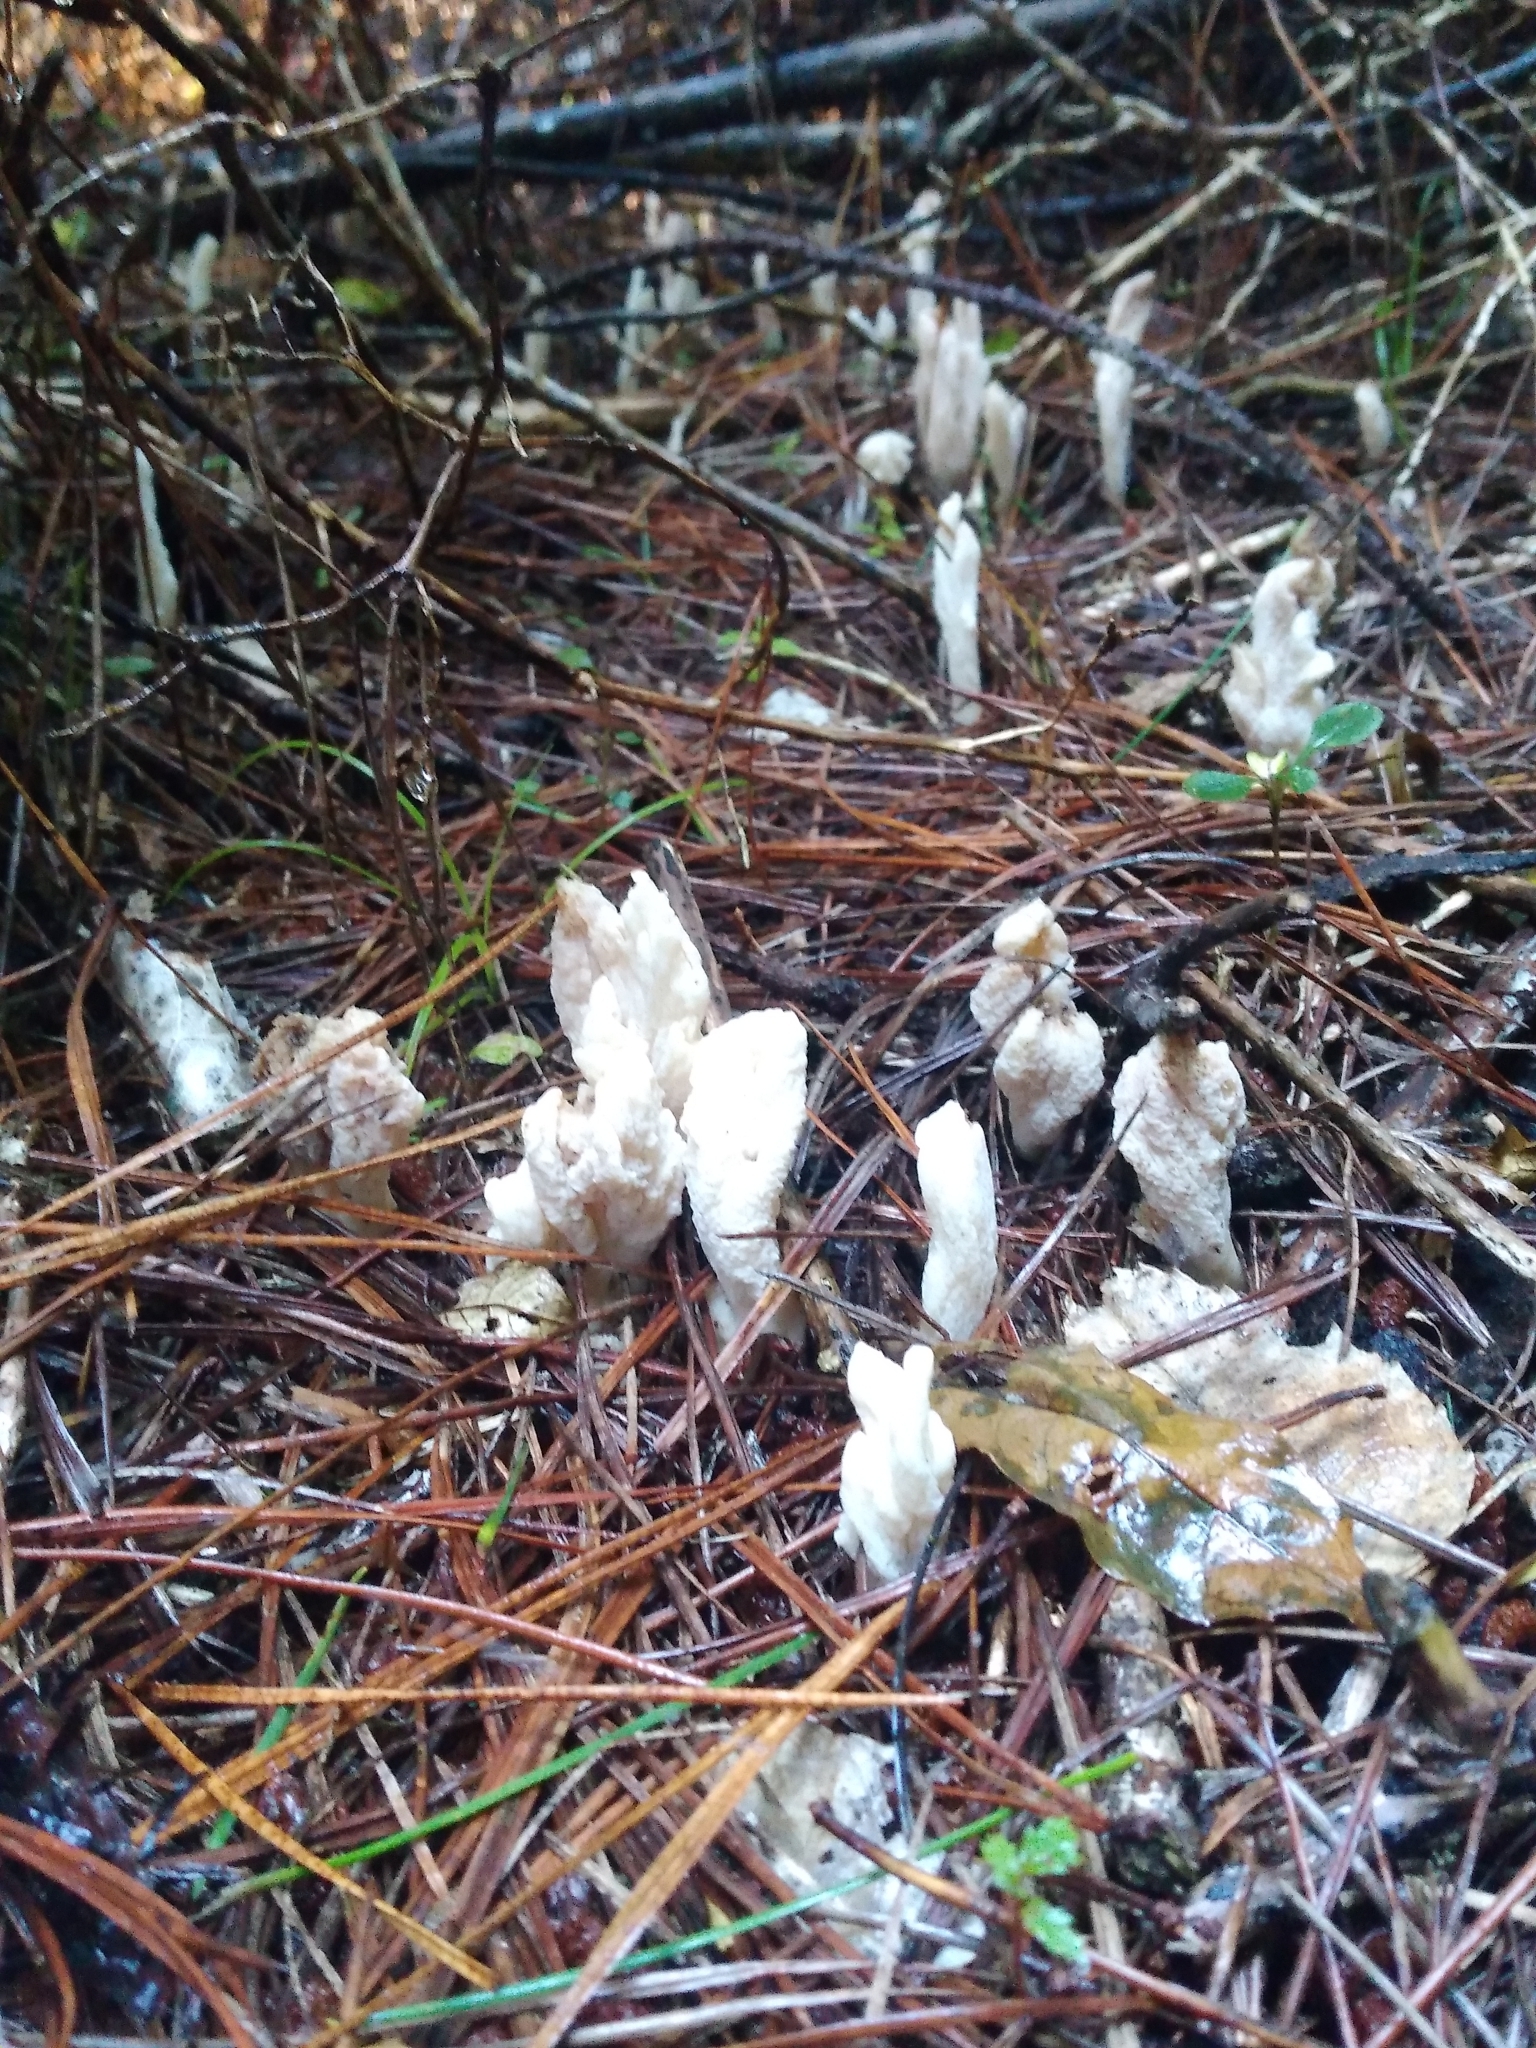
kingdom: Fungi
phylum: Basidiomycota
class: Agaricomycetes
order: Cantharellales
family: Hydnaceae
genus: Clavulina
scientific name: Clavulina rugosa
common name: Wrinkled club
